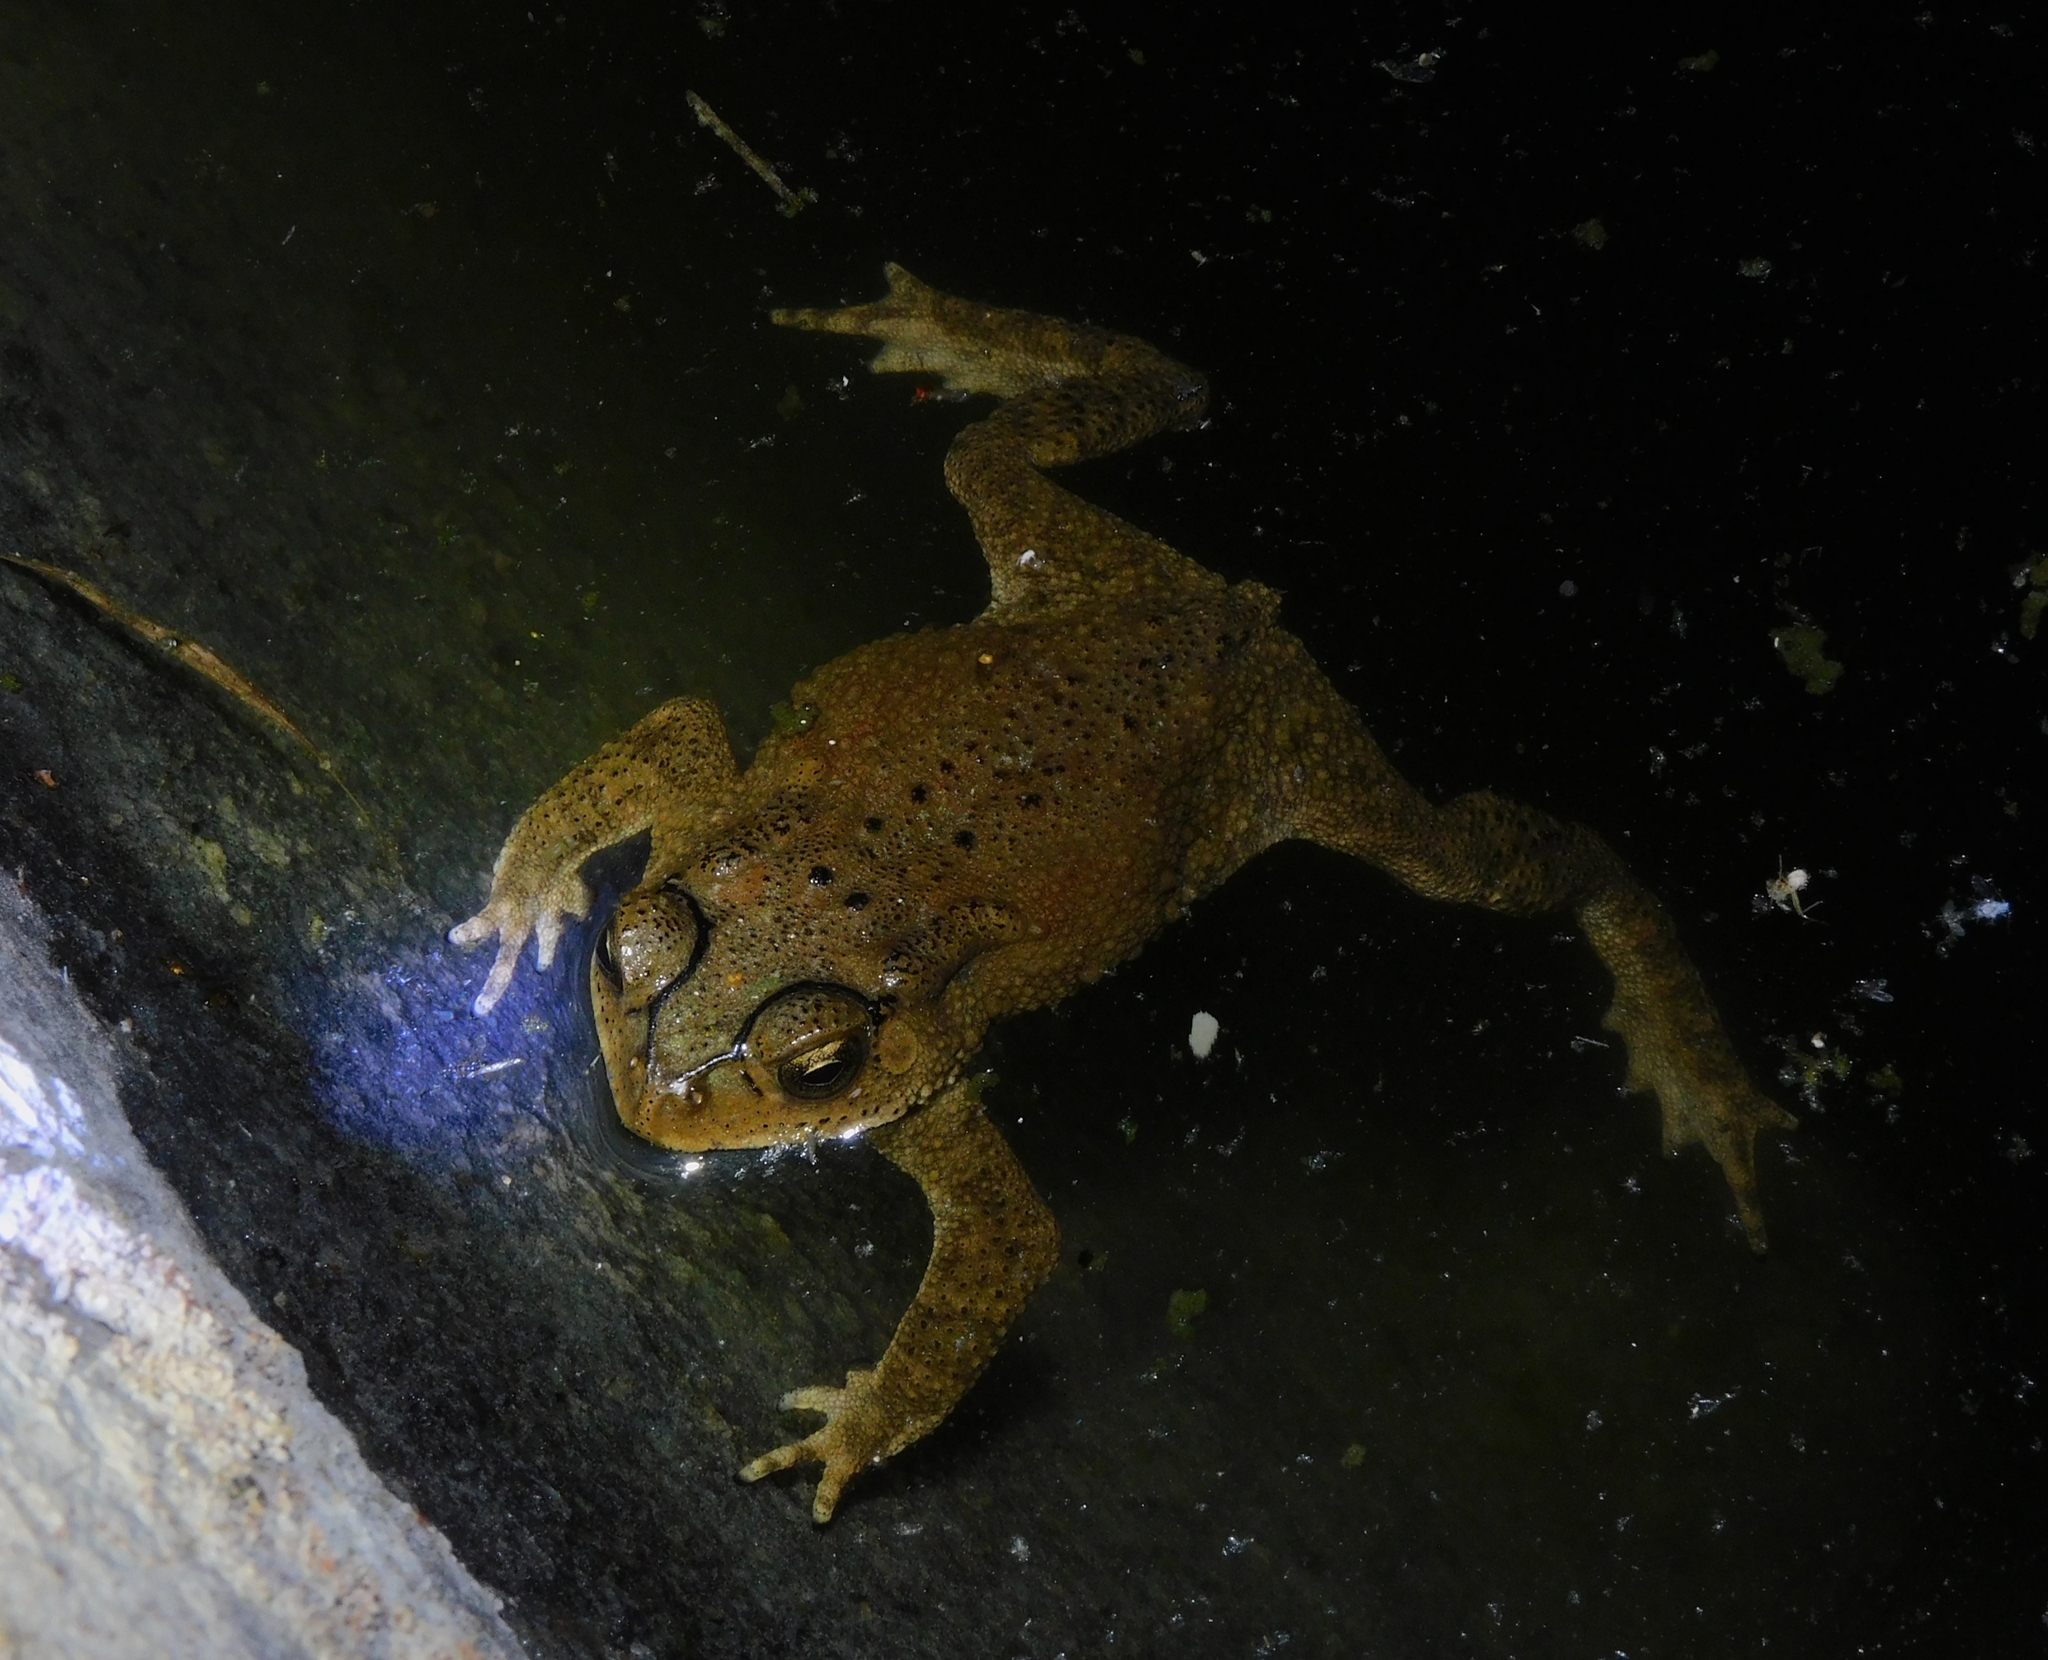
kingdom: Animalia
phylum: Chordata
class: Amphibia
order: Anura
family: Bufonidae
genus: Duttaphrynus
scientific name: Duttaphrynus melanostictus
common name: Common sunda toad
